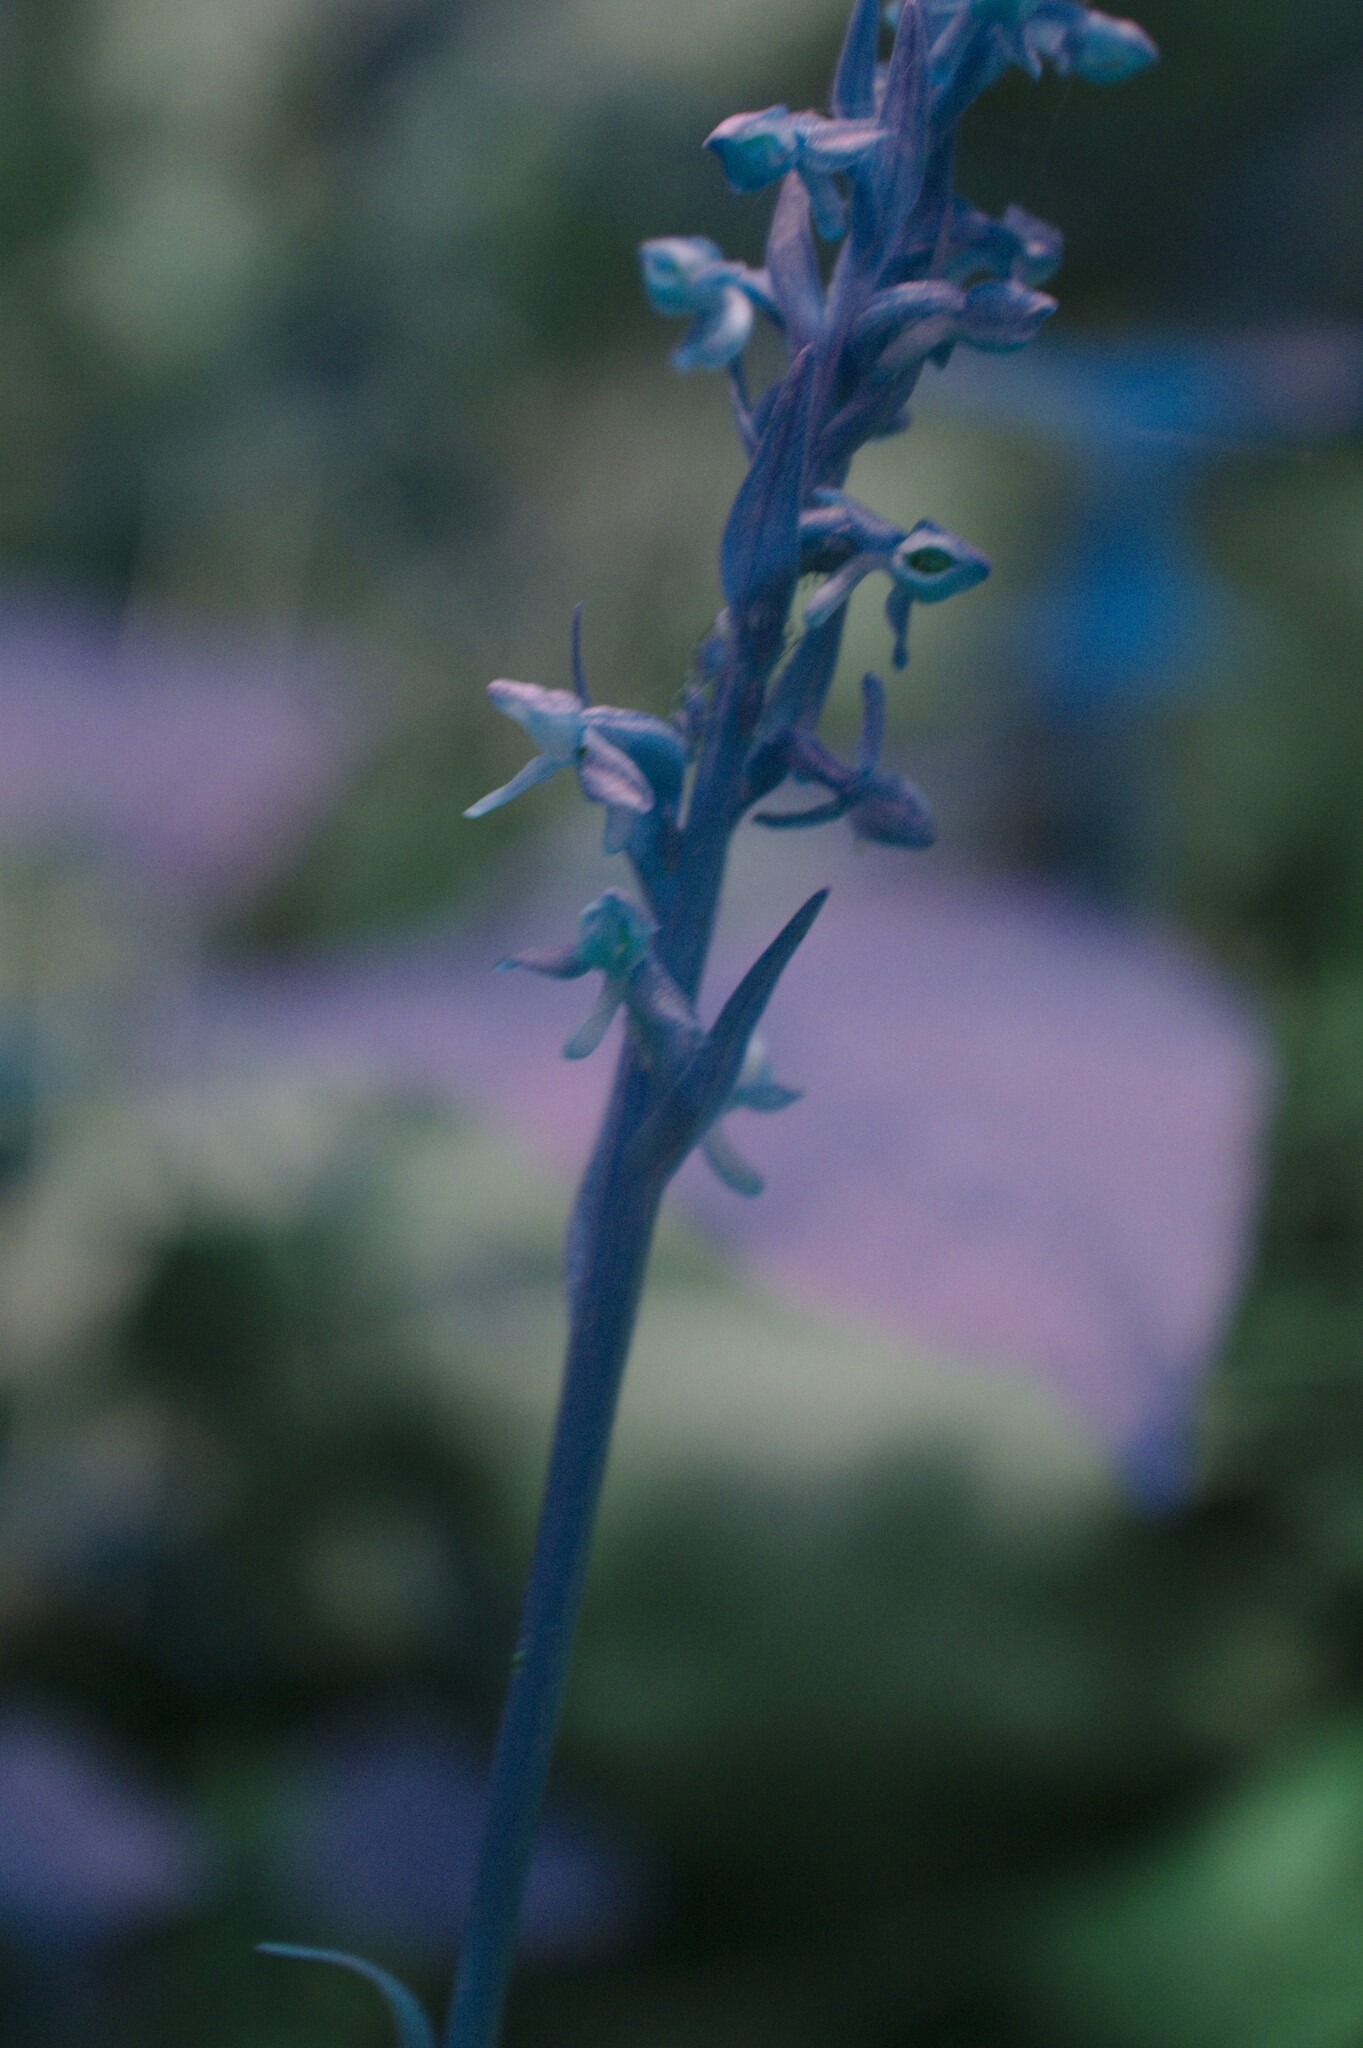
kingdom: Plantae
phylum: Tracheophyta
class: Liliopsida
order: Asparagales
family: Orchidaceae
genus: Platanthera
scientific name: Platanthera aquilonis
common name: Northern green orchid
